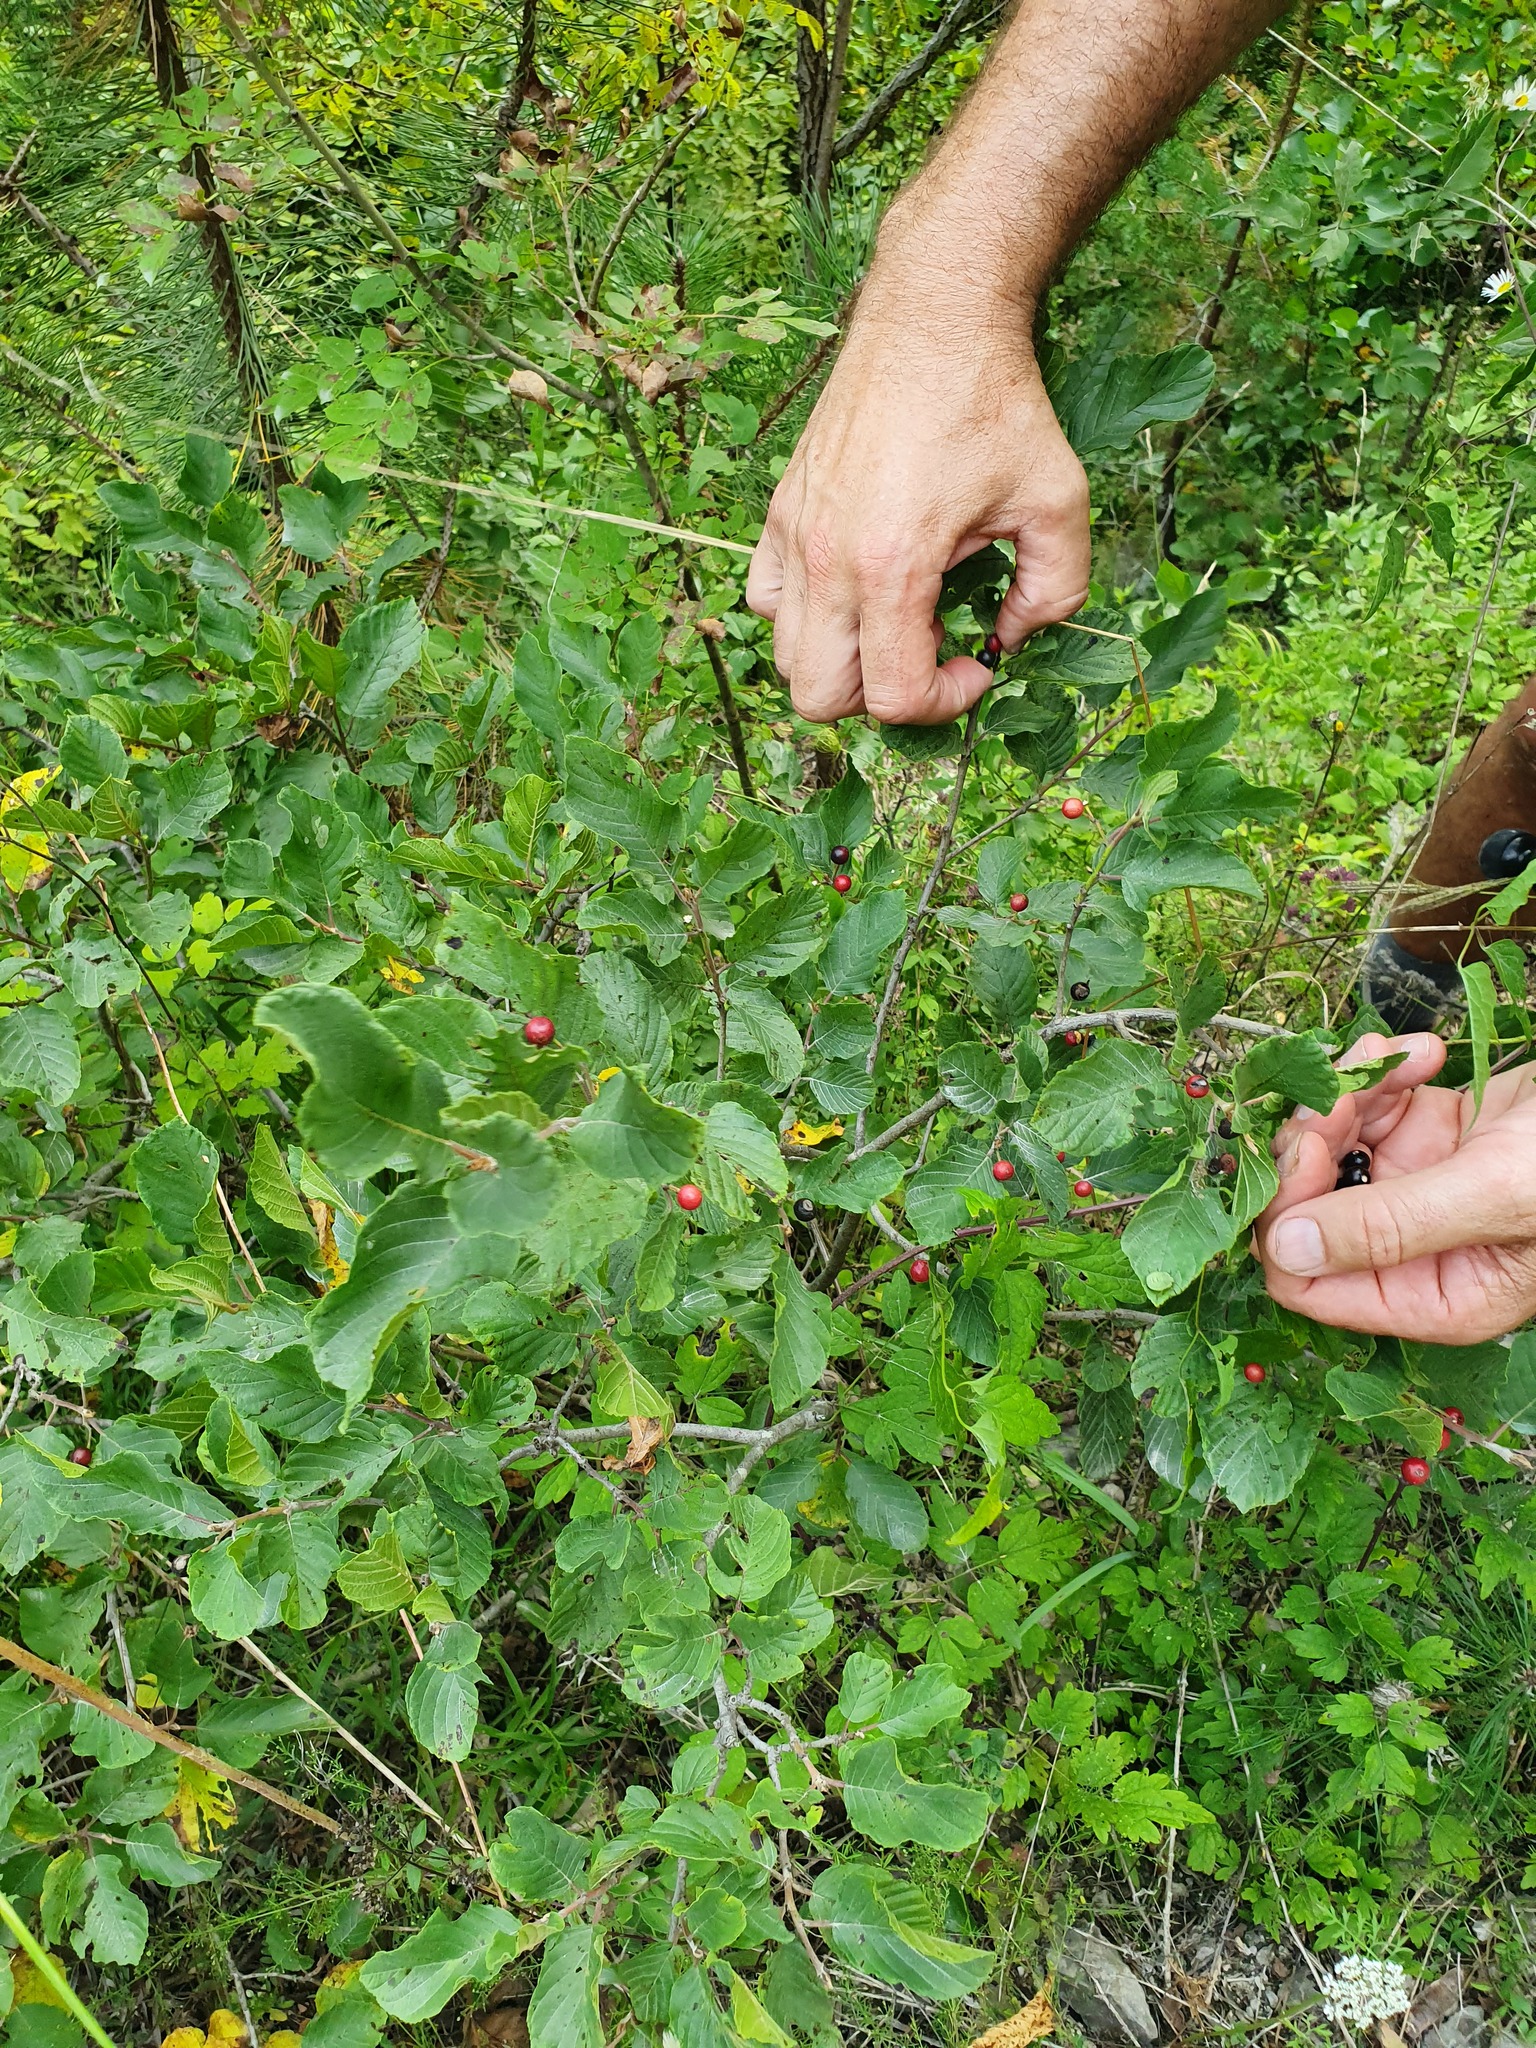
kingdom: Plantae
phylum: Tracheophyta
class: Magnoliopsida
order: Rosales
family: Rhamnaceae
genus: Frangula
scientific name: Frangula rupestris
